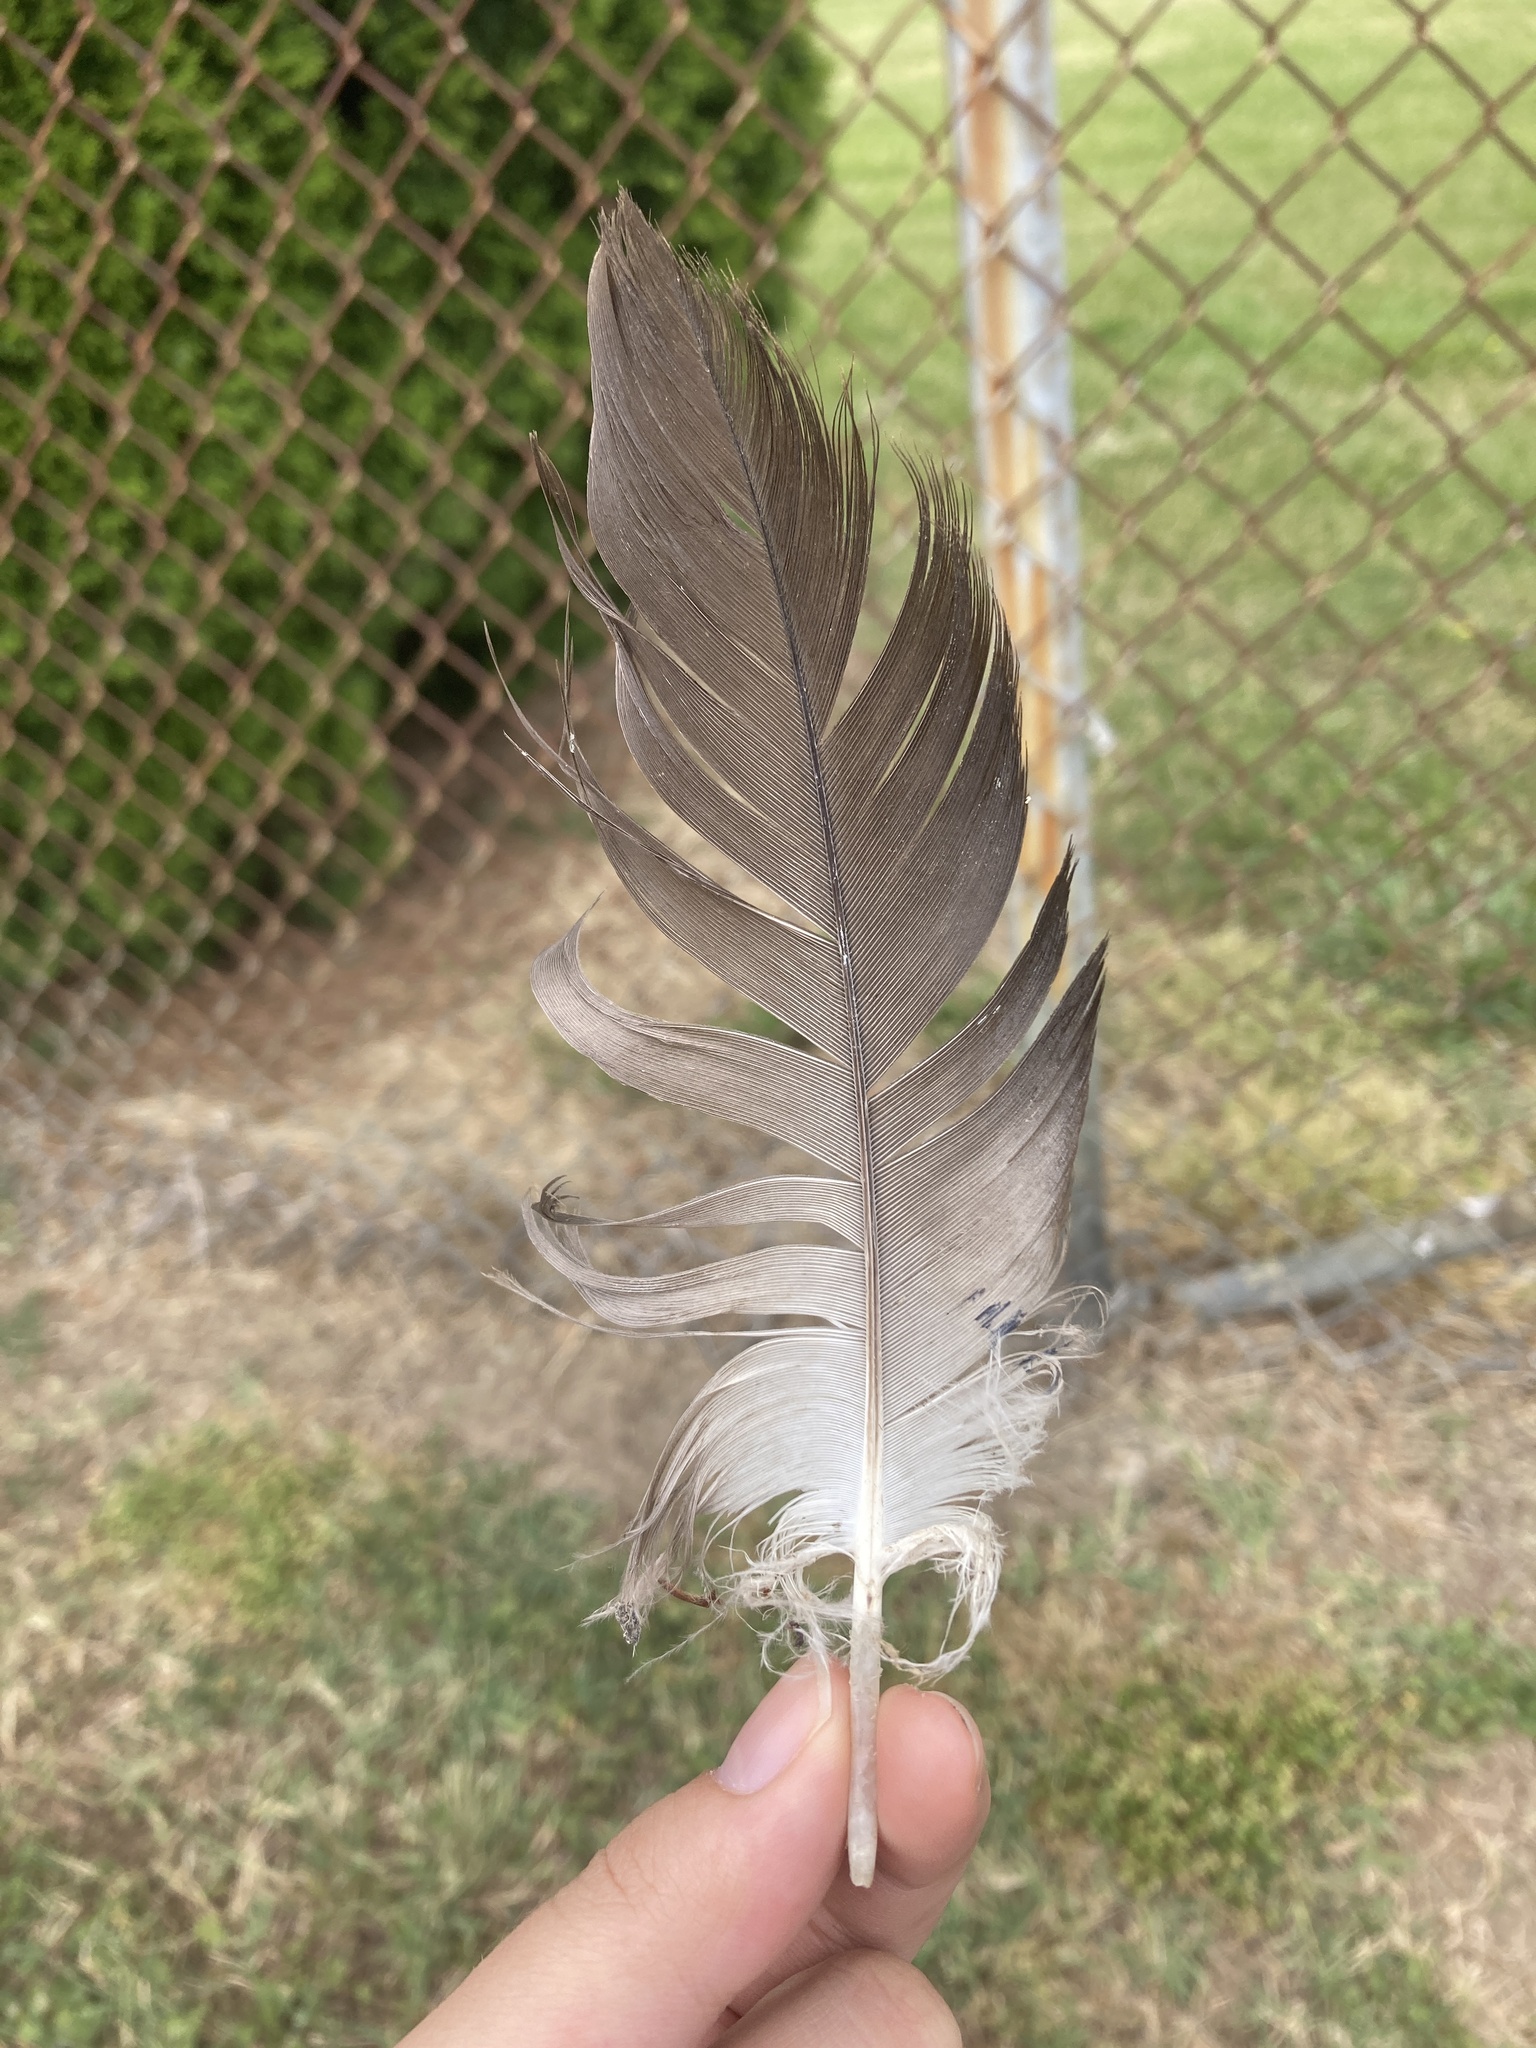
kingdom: Animalia
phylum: Chordata
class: Aves
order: Accipitriformes
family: Accipitridae
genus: Haliaeetus
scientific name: Haliaeetus leucocephalus
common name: Bald eagle
